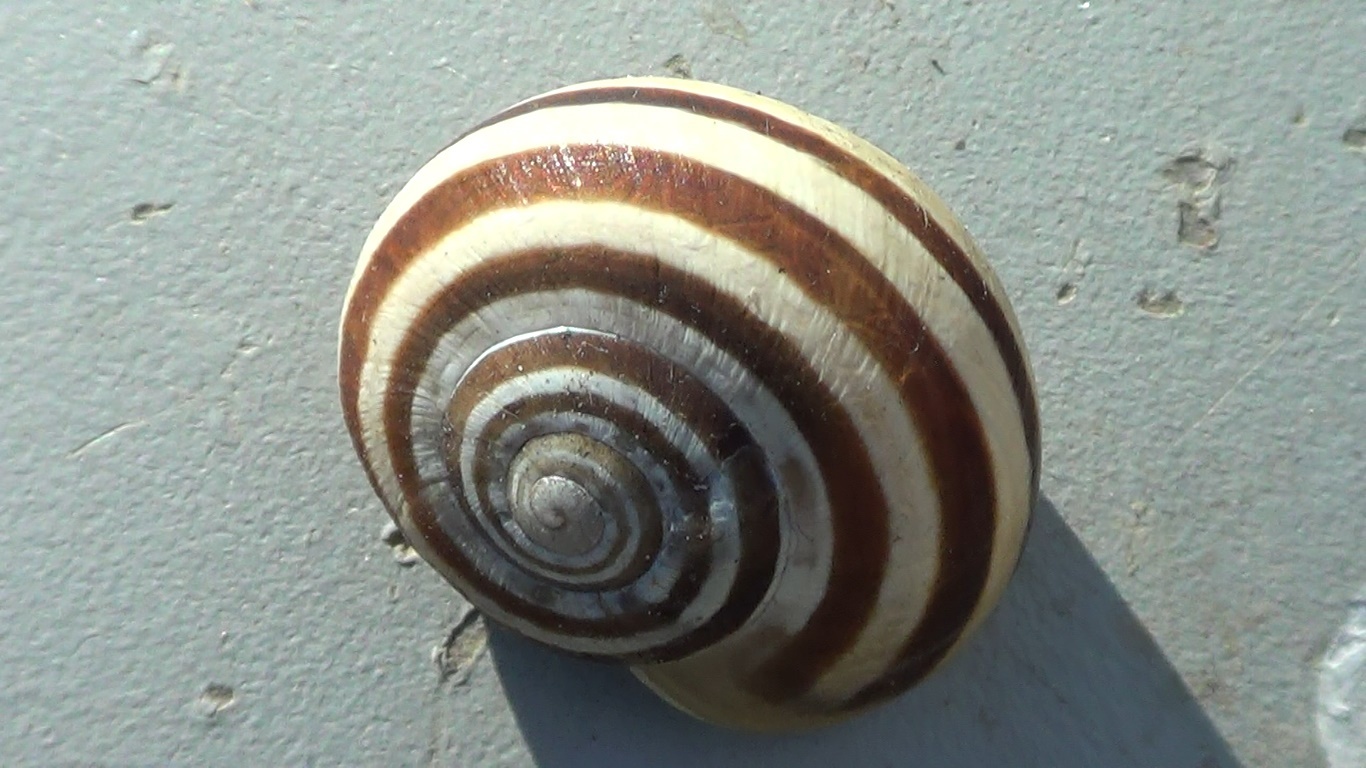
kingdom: Animalia
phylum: Mollusca
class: Gastropoda
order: Stylommatophora
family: Helicidae
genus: Eobania
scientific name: Eobania vermiculata
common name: Chocolateband snail
